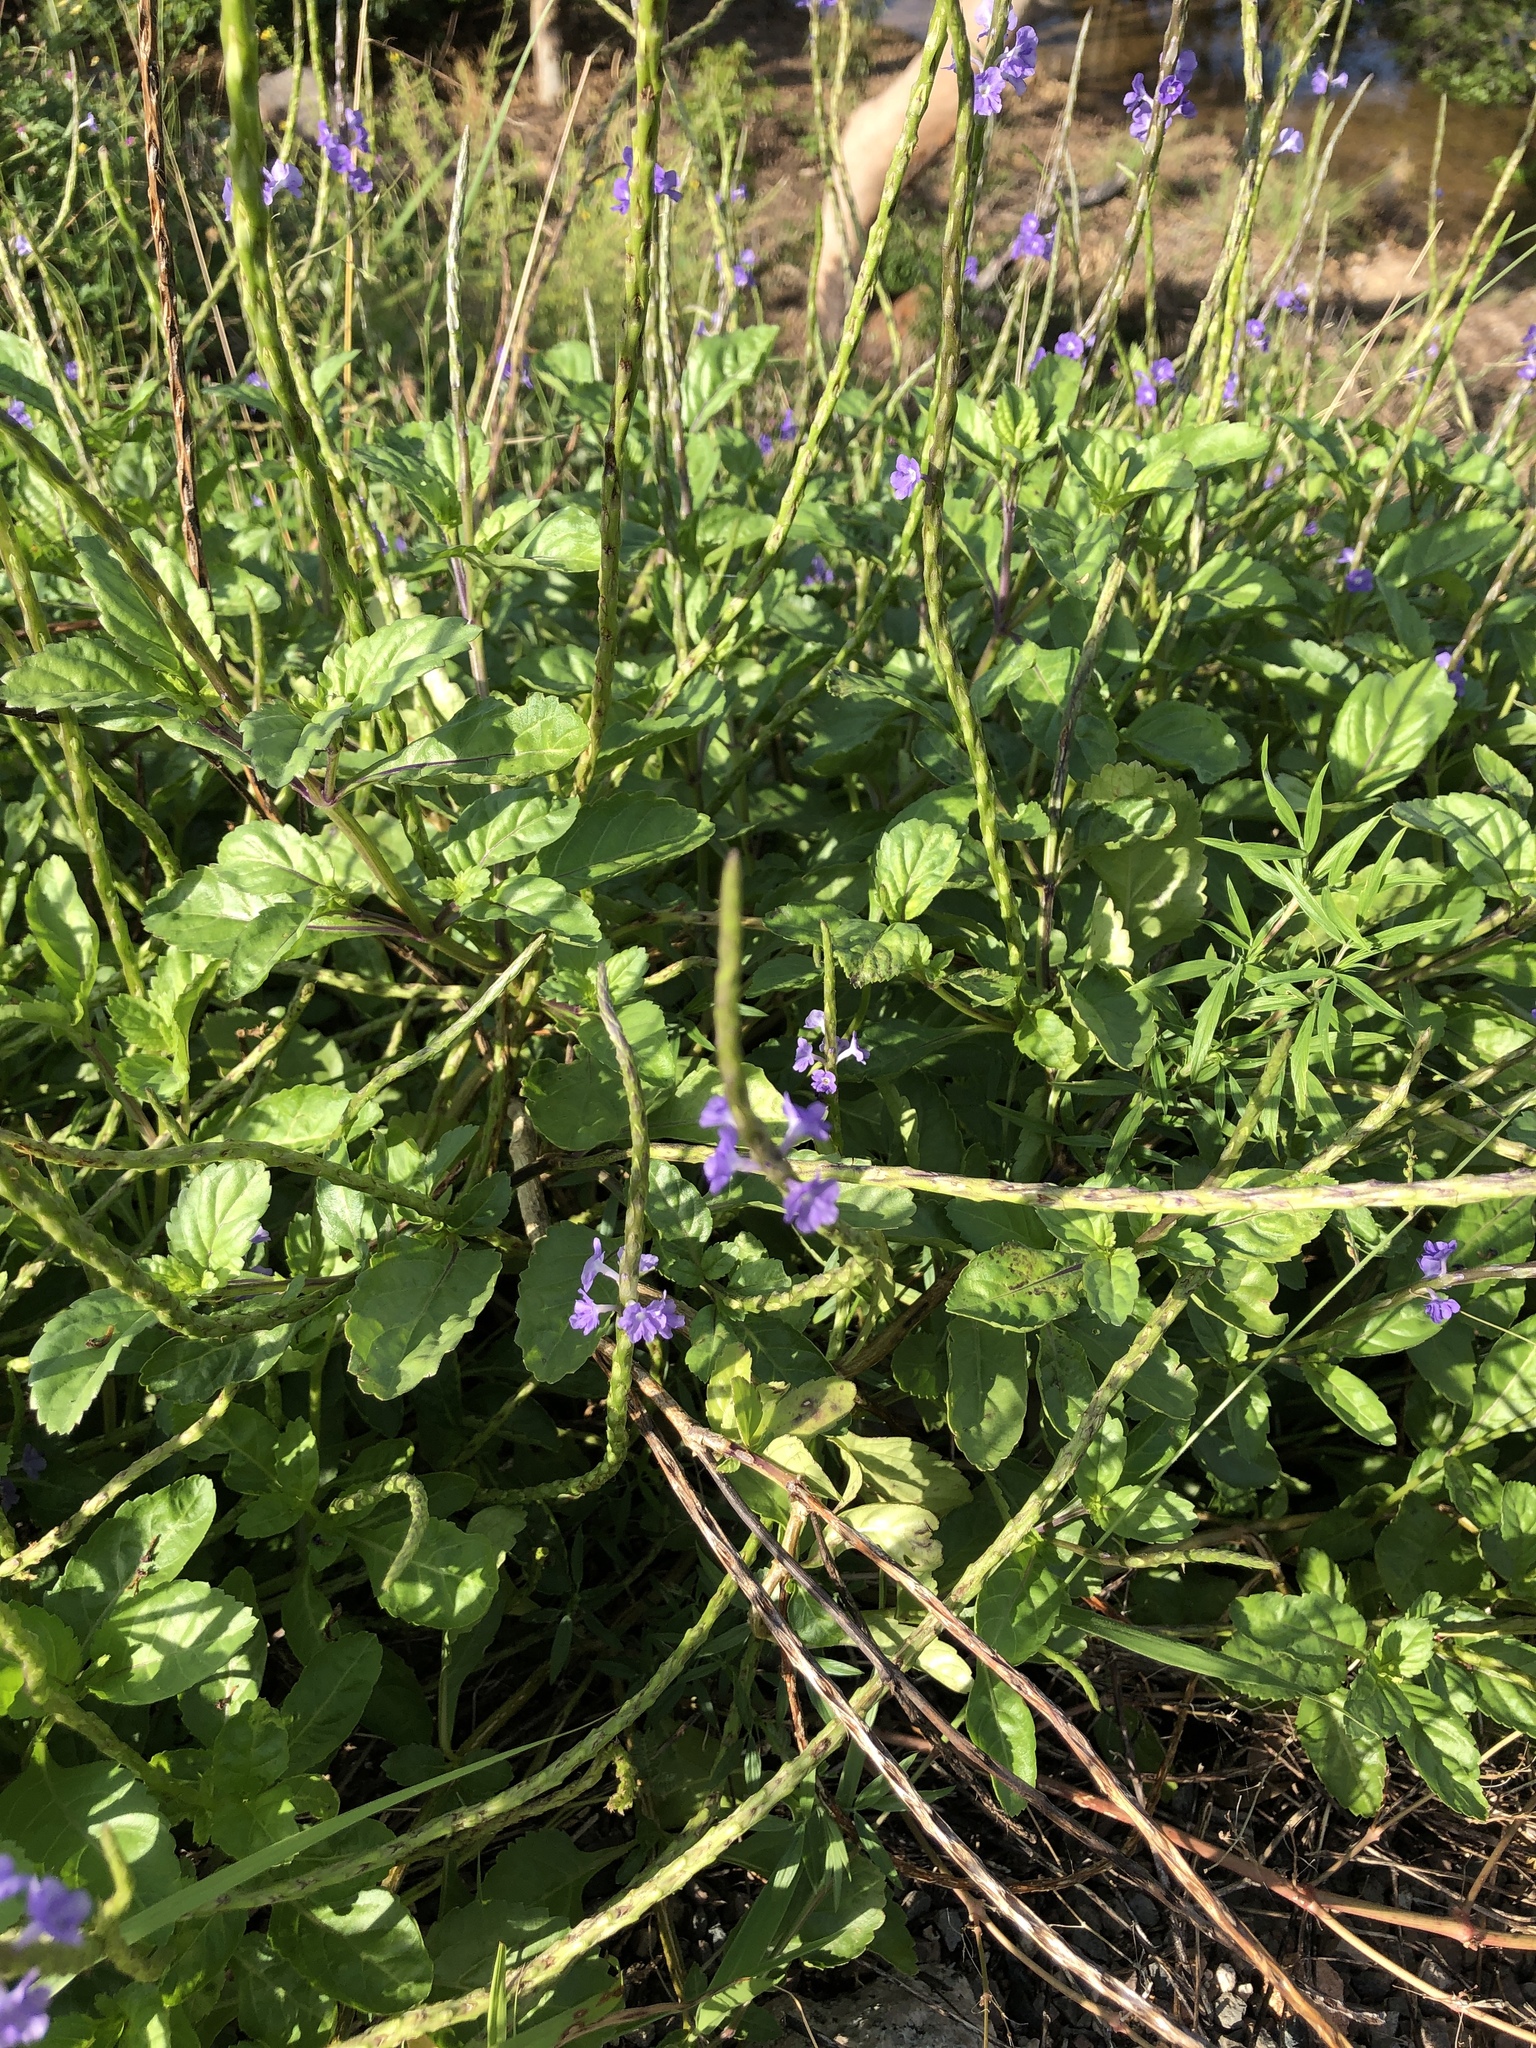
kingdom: Plantae
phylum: Tracheophyta
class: Magnoliopsida
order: Lamiales
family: Verbenaceae
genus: Stachytarpheta
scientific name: Stachytarpheta jamaicensis
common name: Light-blue snakeweed
